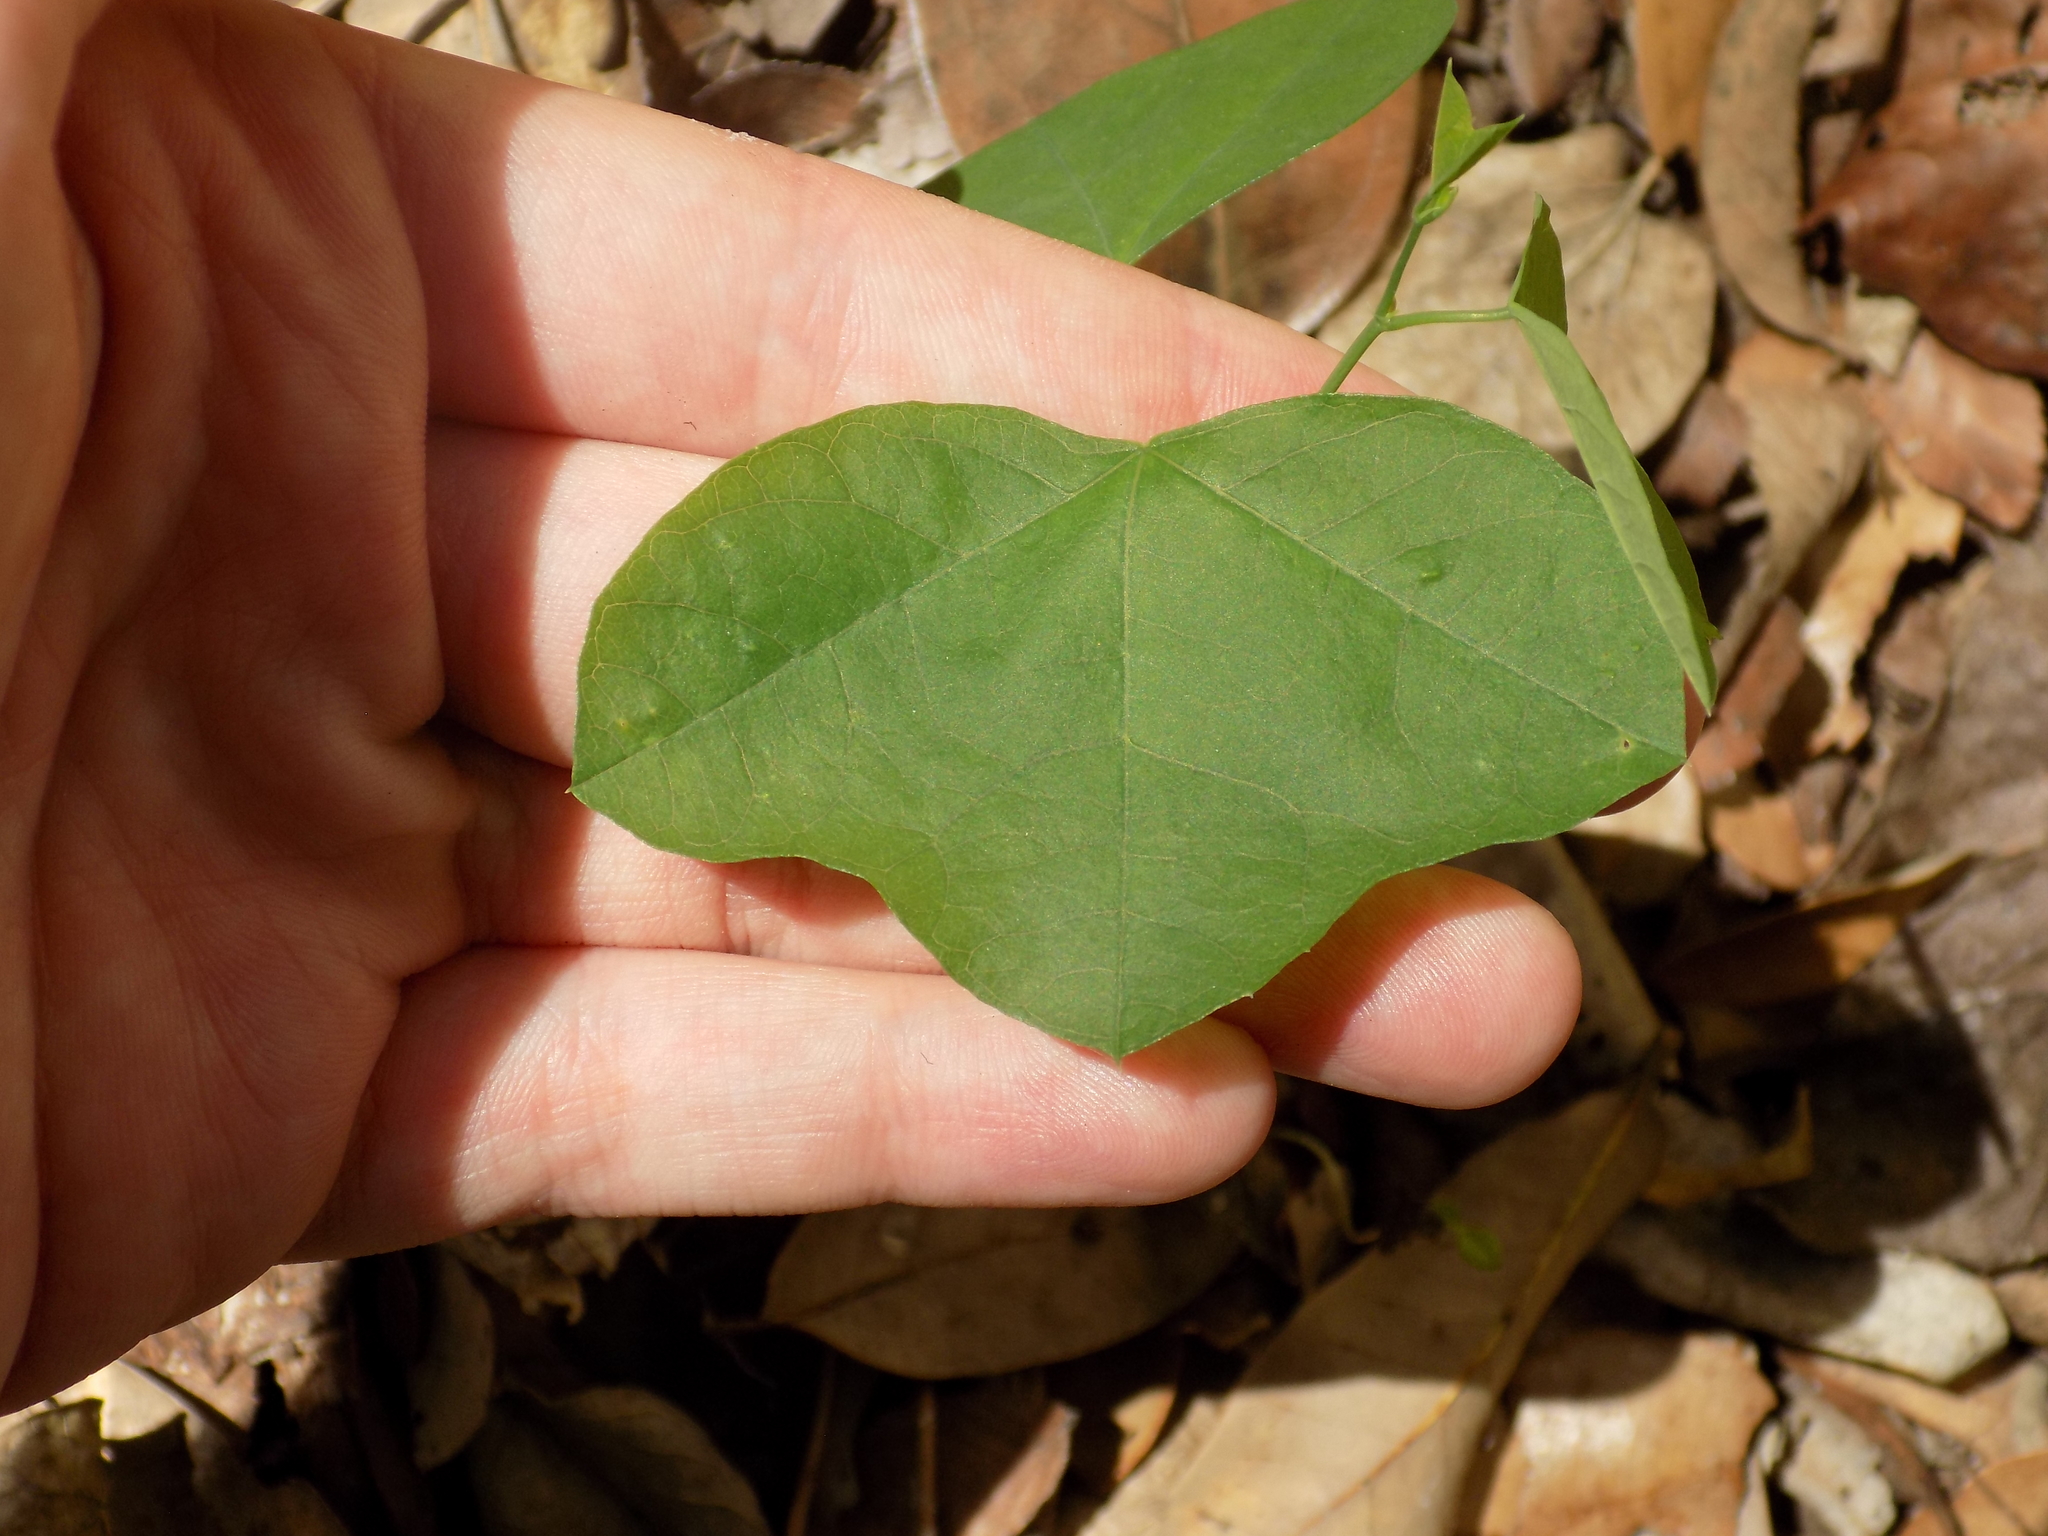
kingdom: Plantae
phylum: Tracheophyta
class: Magnoliopsida
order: Malpighiales
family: Passifloraceae
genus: Passiflora
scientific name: Passiflora lutea
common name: Yellow passionflower
